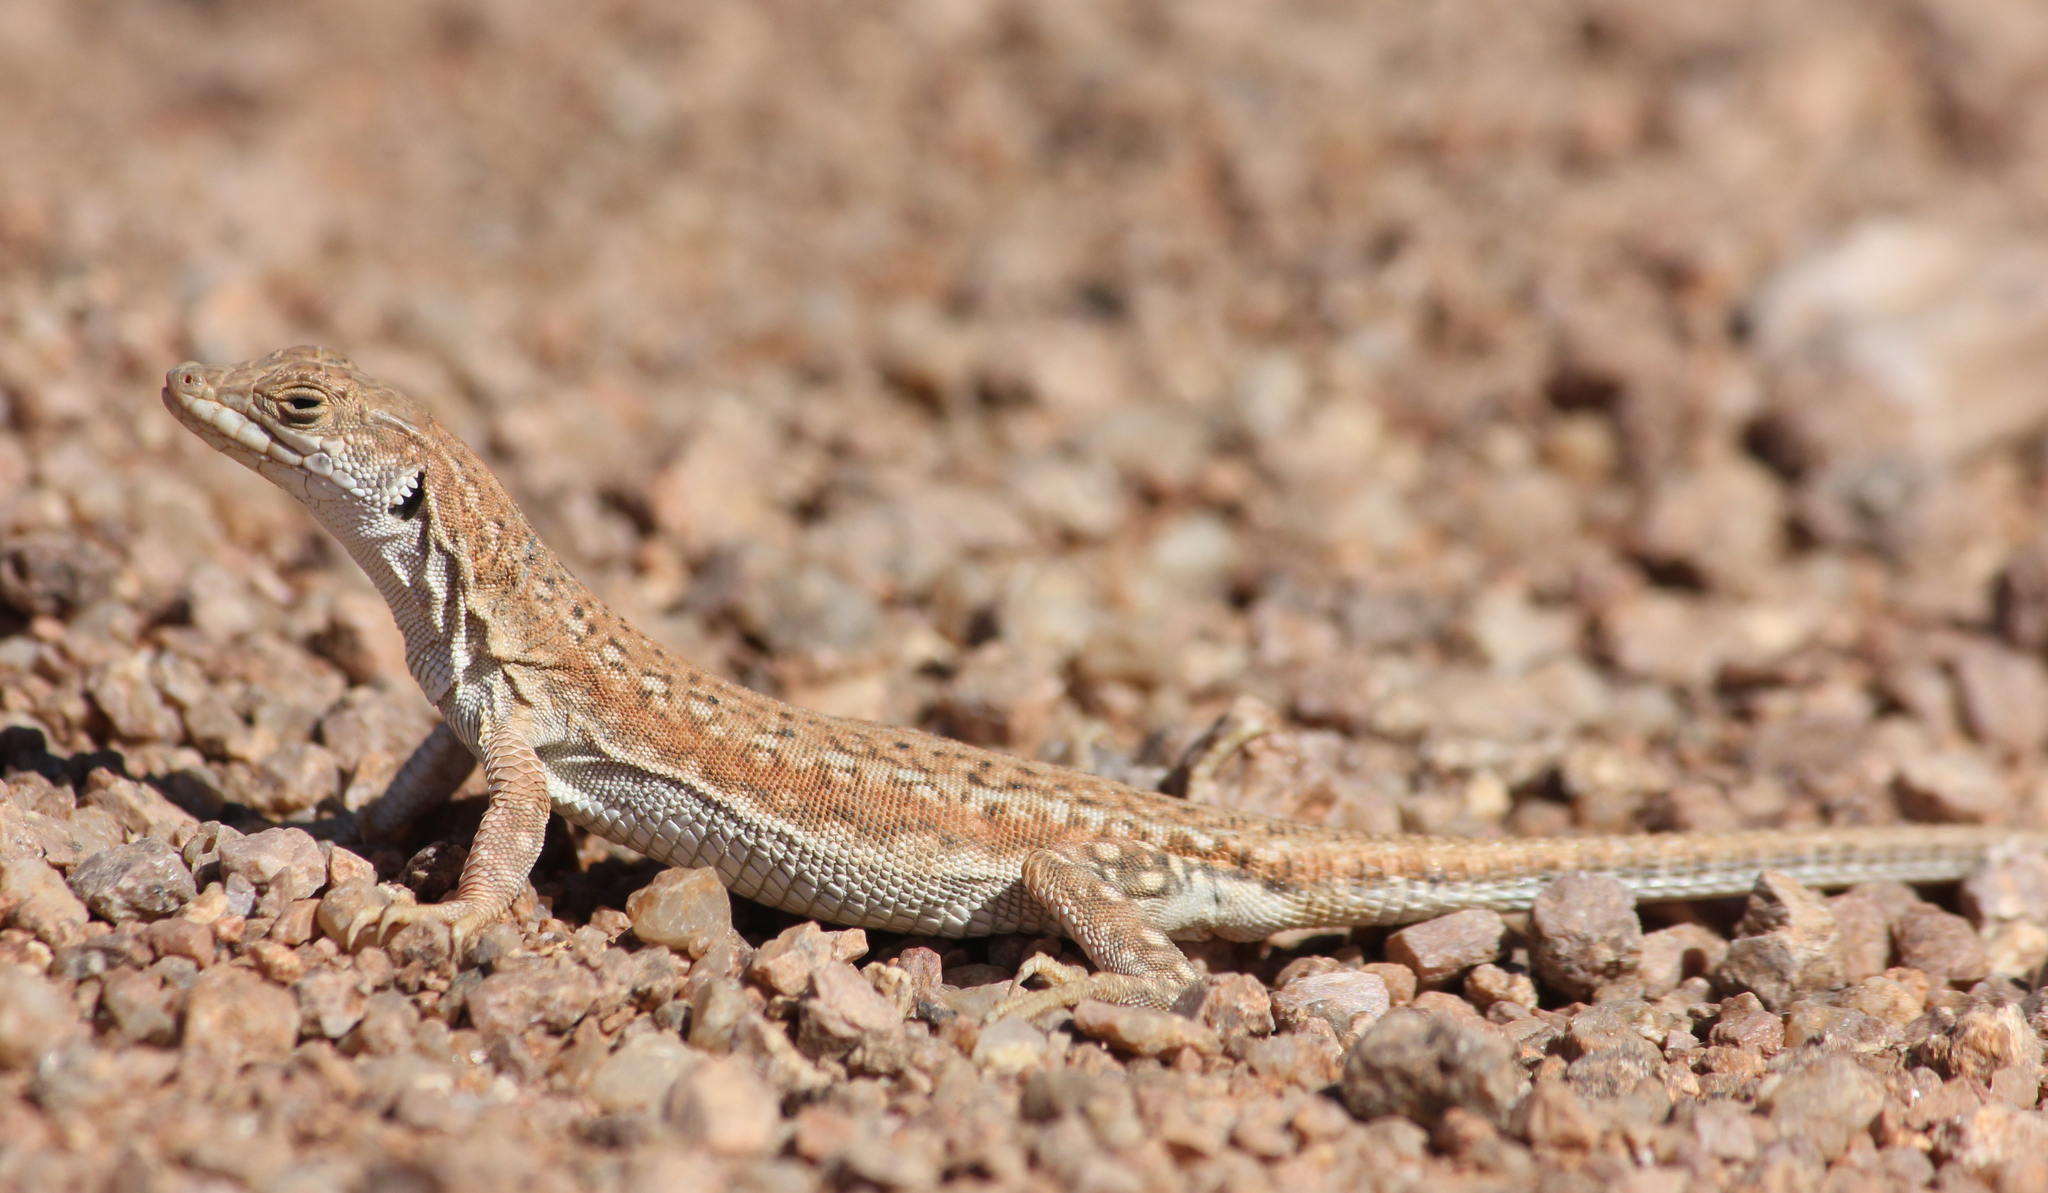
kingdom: Animalia
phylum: Chordata
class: Squamata
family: Lacertidae
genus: Meroles
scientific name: Meroles suborbitalis
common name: Spotted sand lizard
